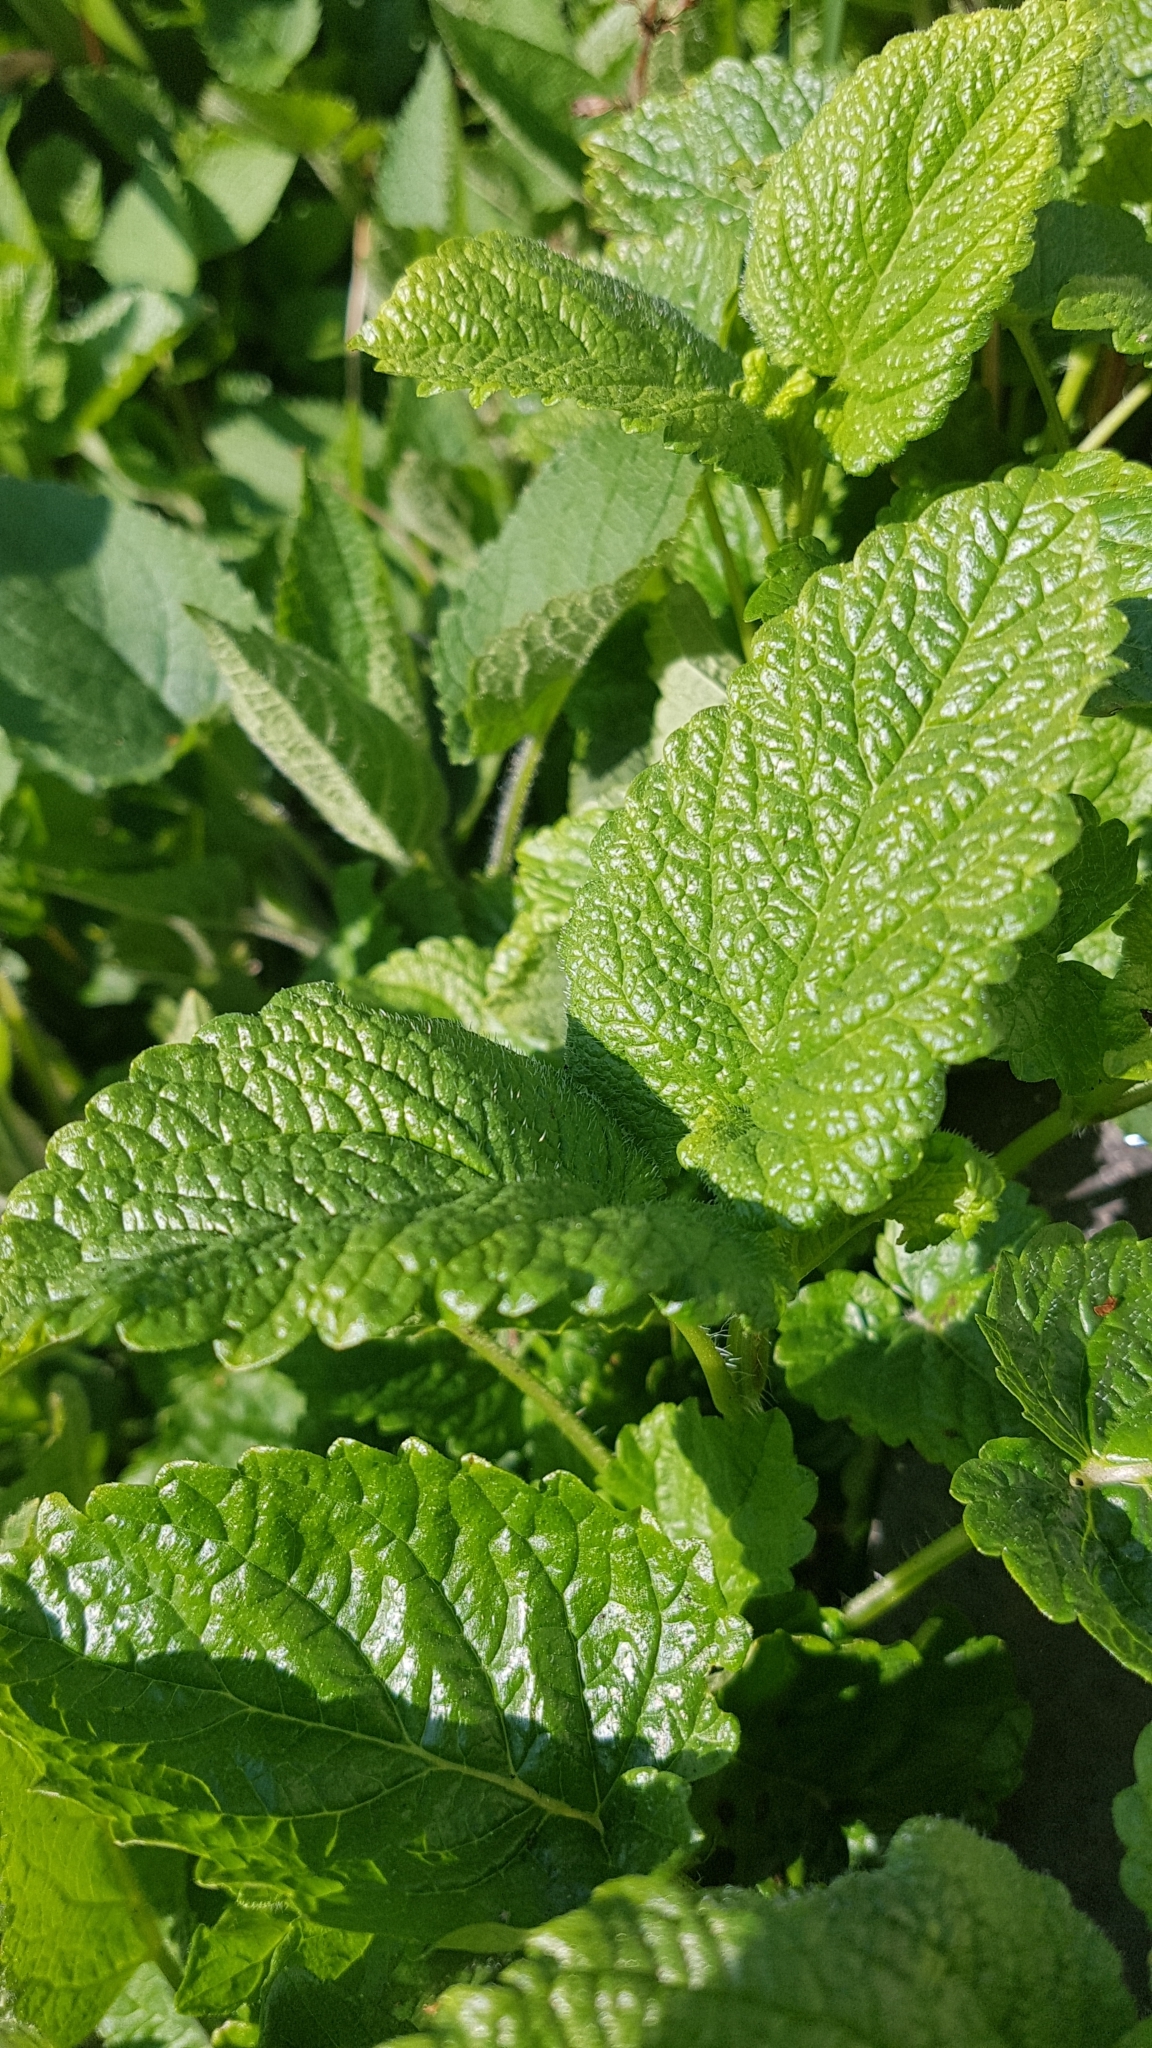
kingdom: Plantae
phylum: Tracheophyta
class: Magnoliopsida
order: Lamiales
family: Lamiaceae
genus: Melissa
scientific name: Melissa officinalis
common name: Balm
